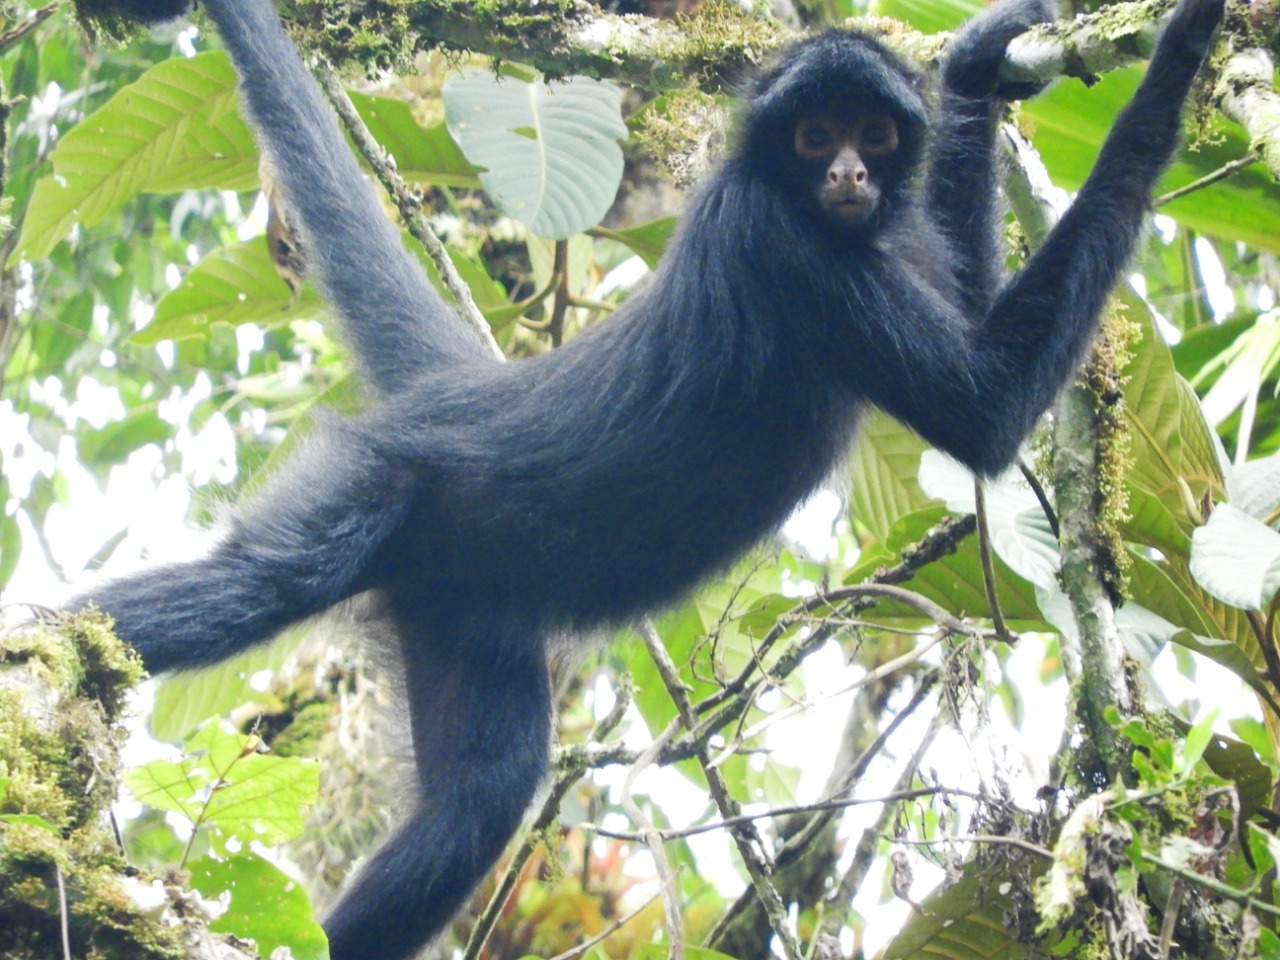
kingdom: Animalia
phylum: Chordata
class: Mammalia
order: Primates
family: Atelidae
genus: Ateles
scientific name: Ateles chamek
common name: Peruvian spider monkey
